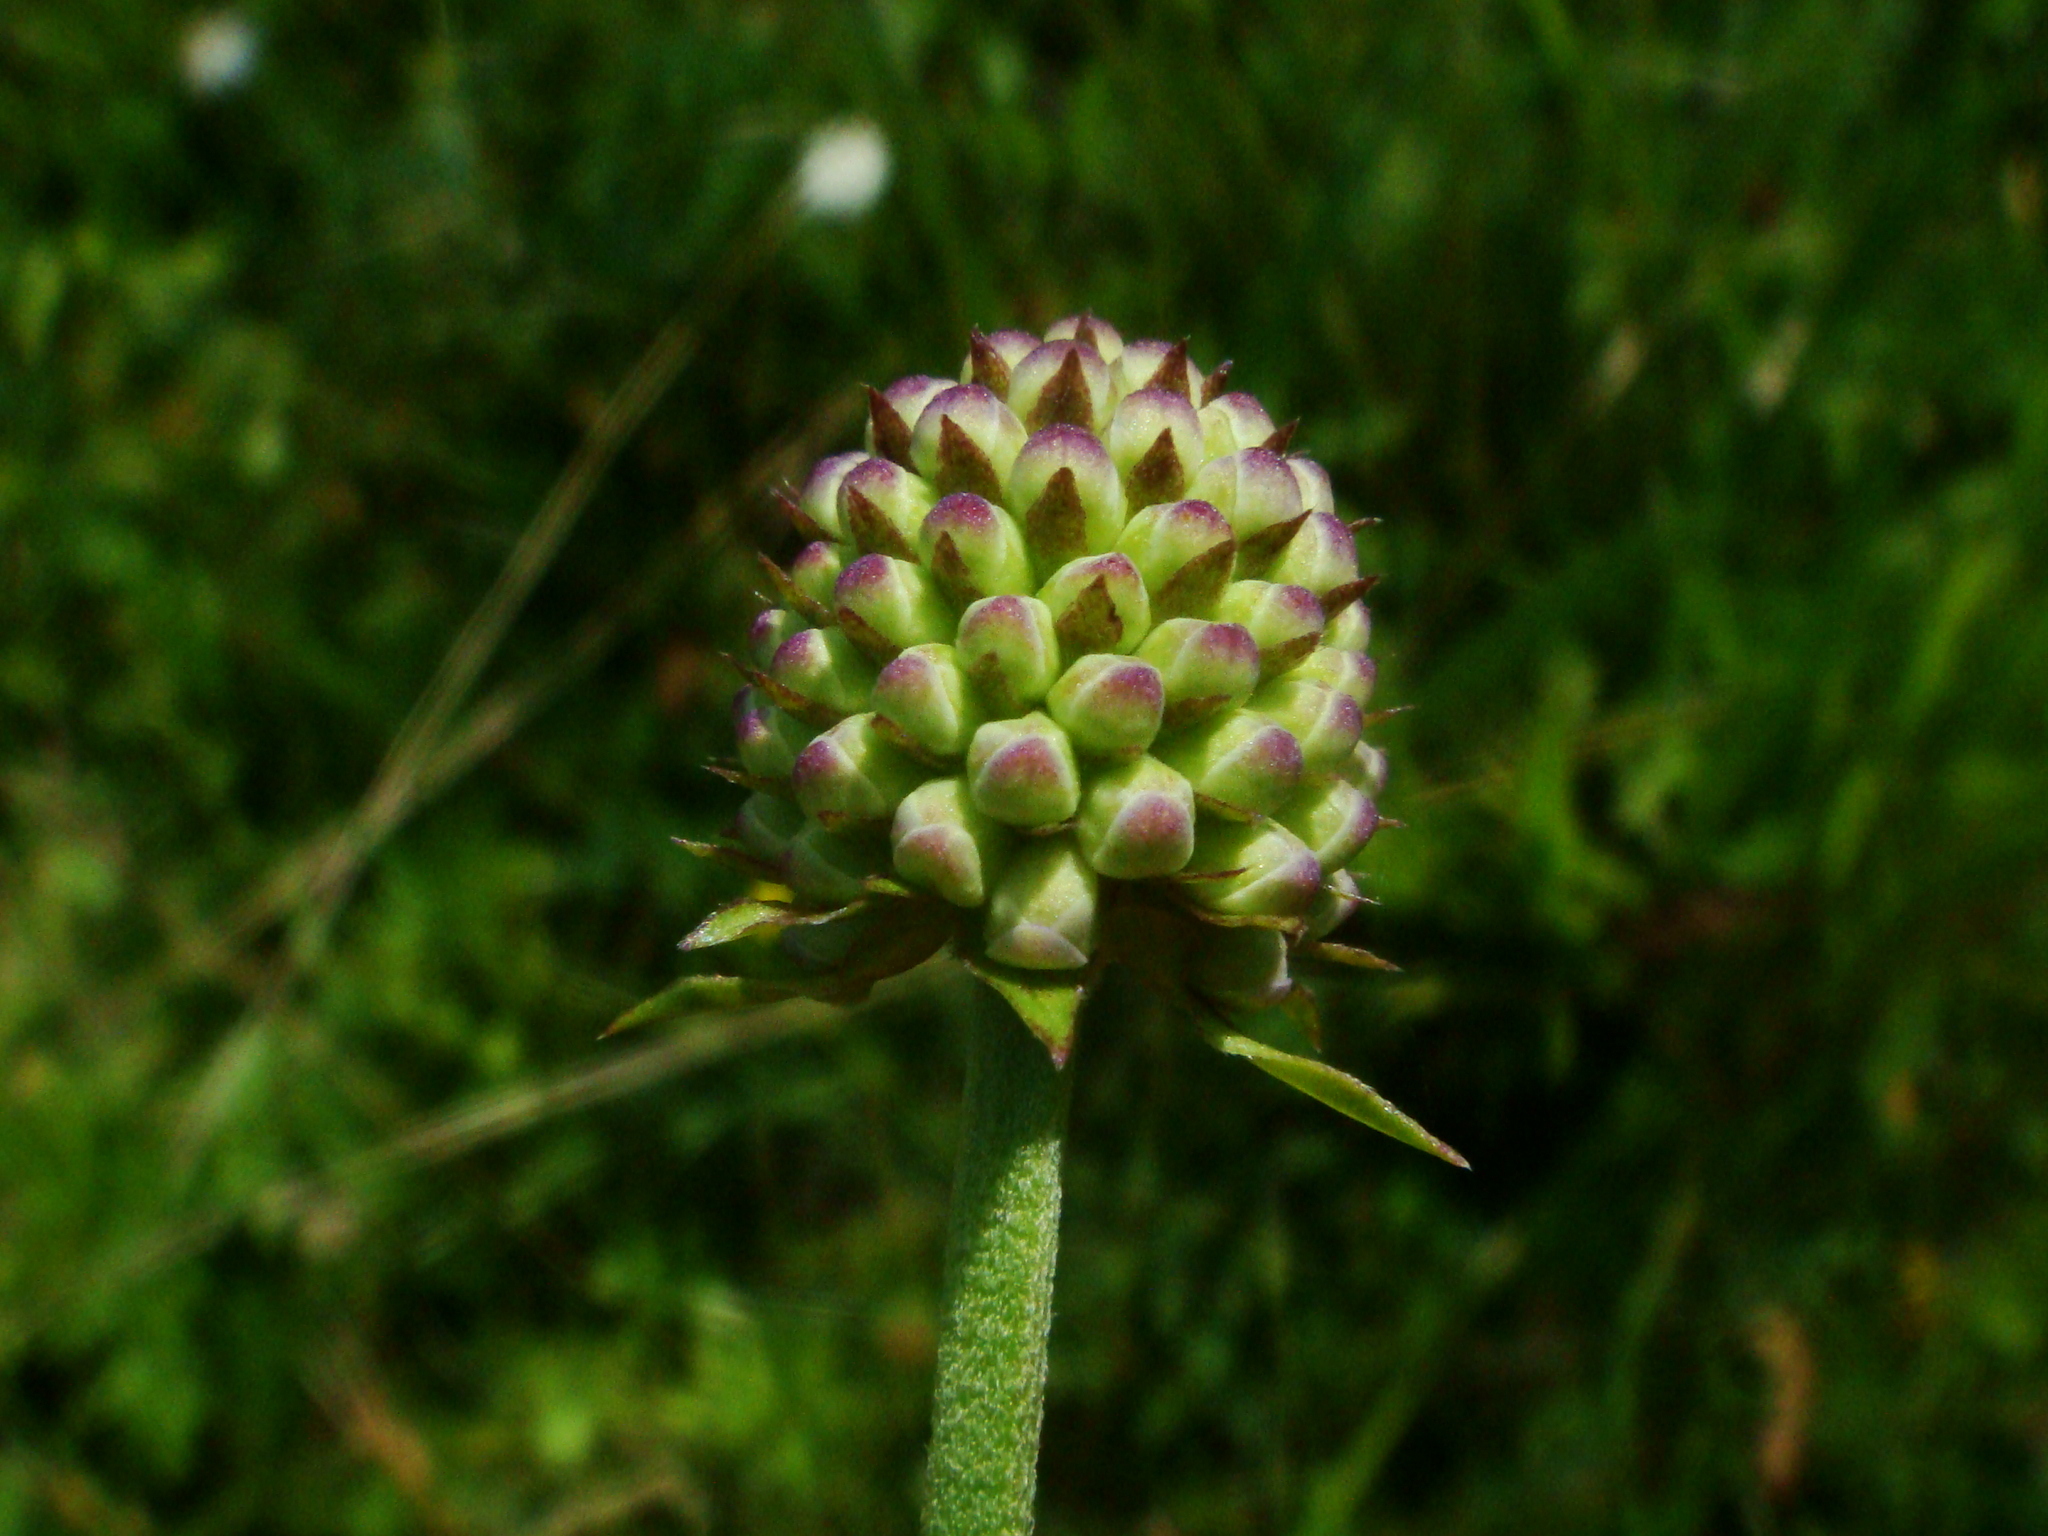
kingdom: Plantae
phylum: Tracheophyta
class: Magnoliopsida
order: Dipsacales
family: Caprifoliaceae
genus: Succisella
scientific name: Succisella inflexa
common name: Southern succisella
